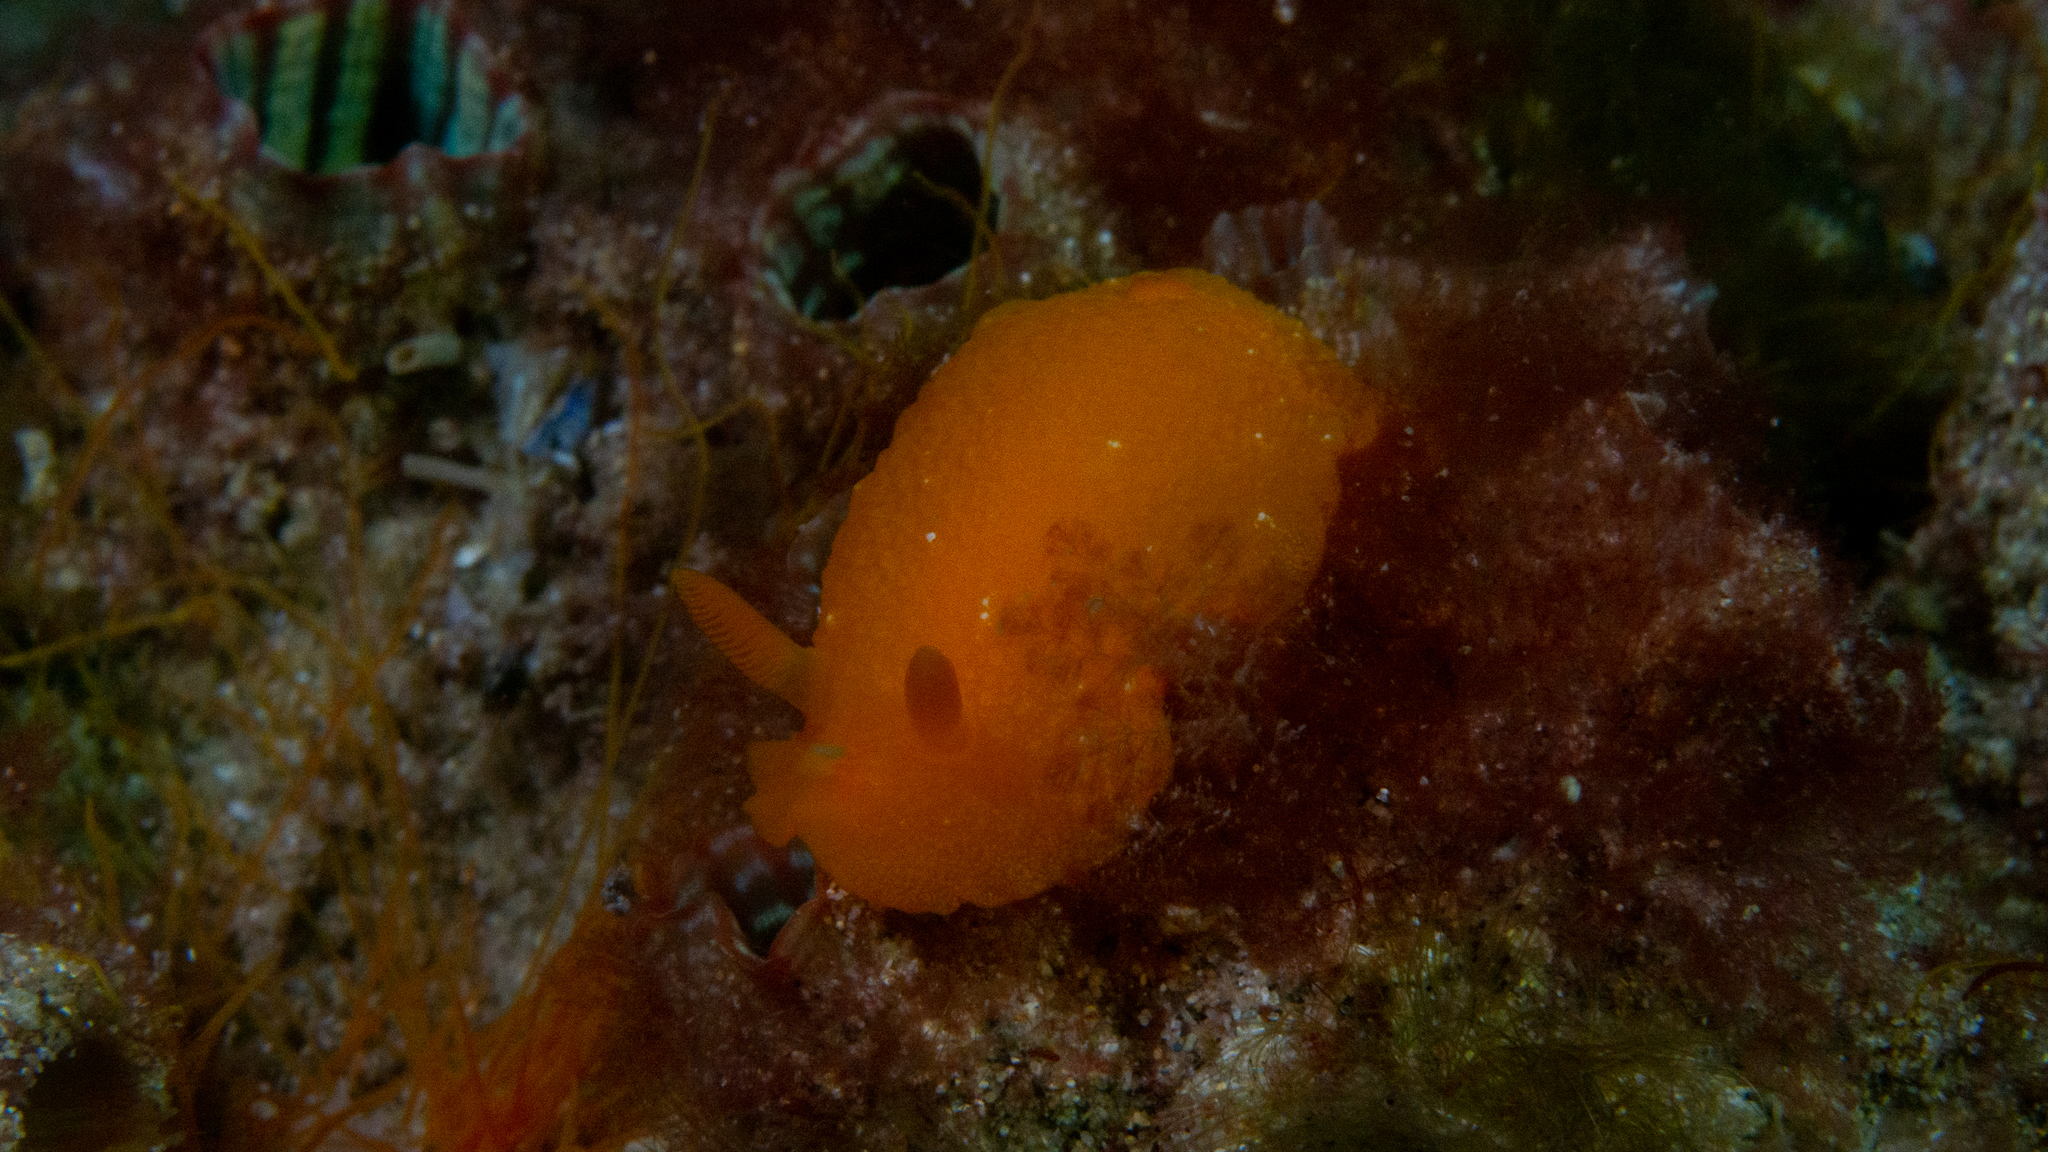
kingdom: Animalia
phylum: Mollusca
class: Gastropoda
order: Nudibranchia
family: Dendrodorididae
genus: Doriopsilla
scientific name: Doriopsilla carneola
